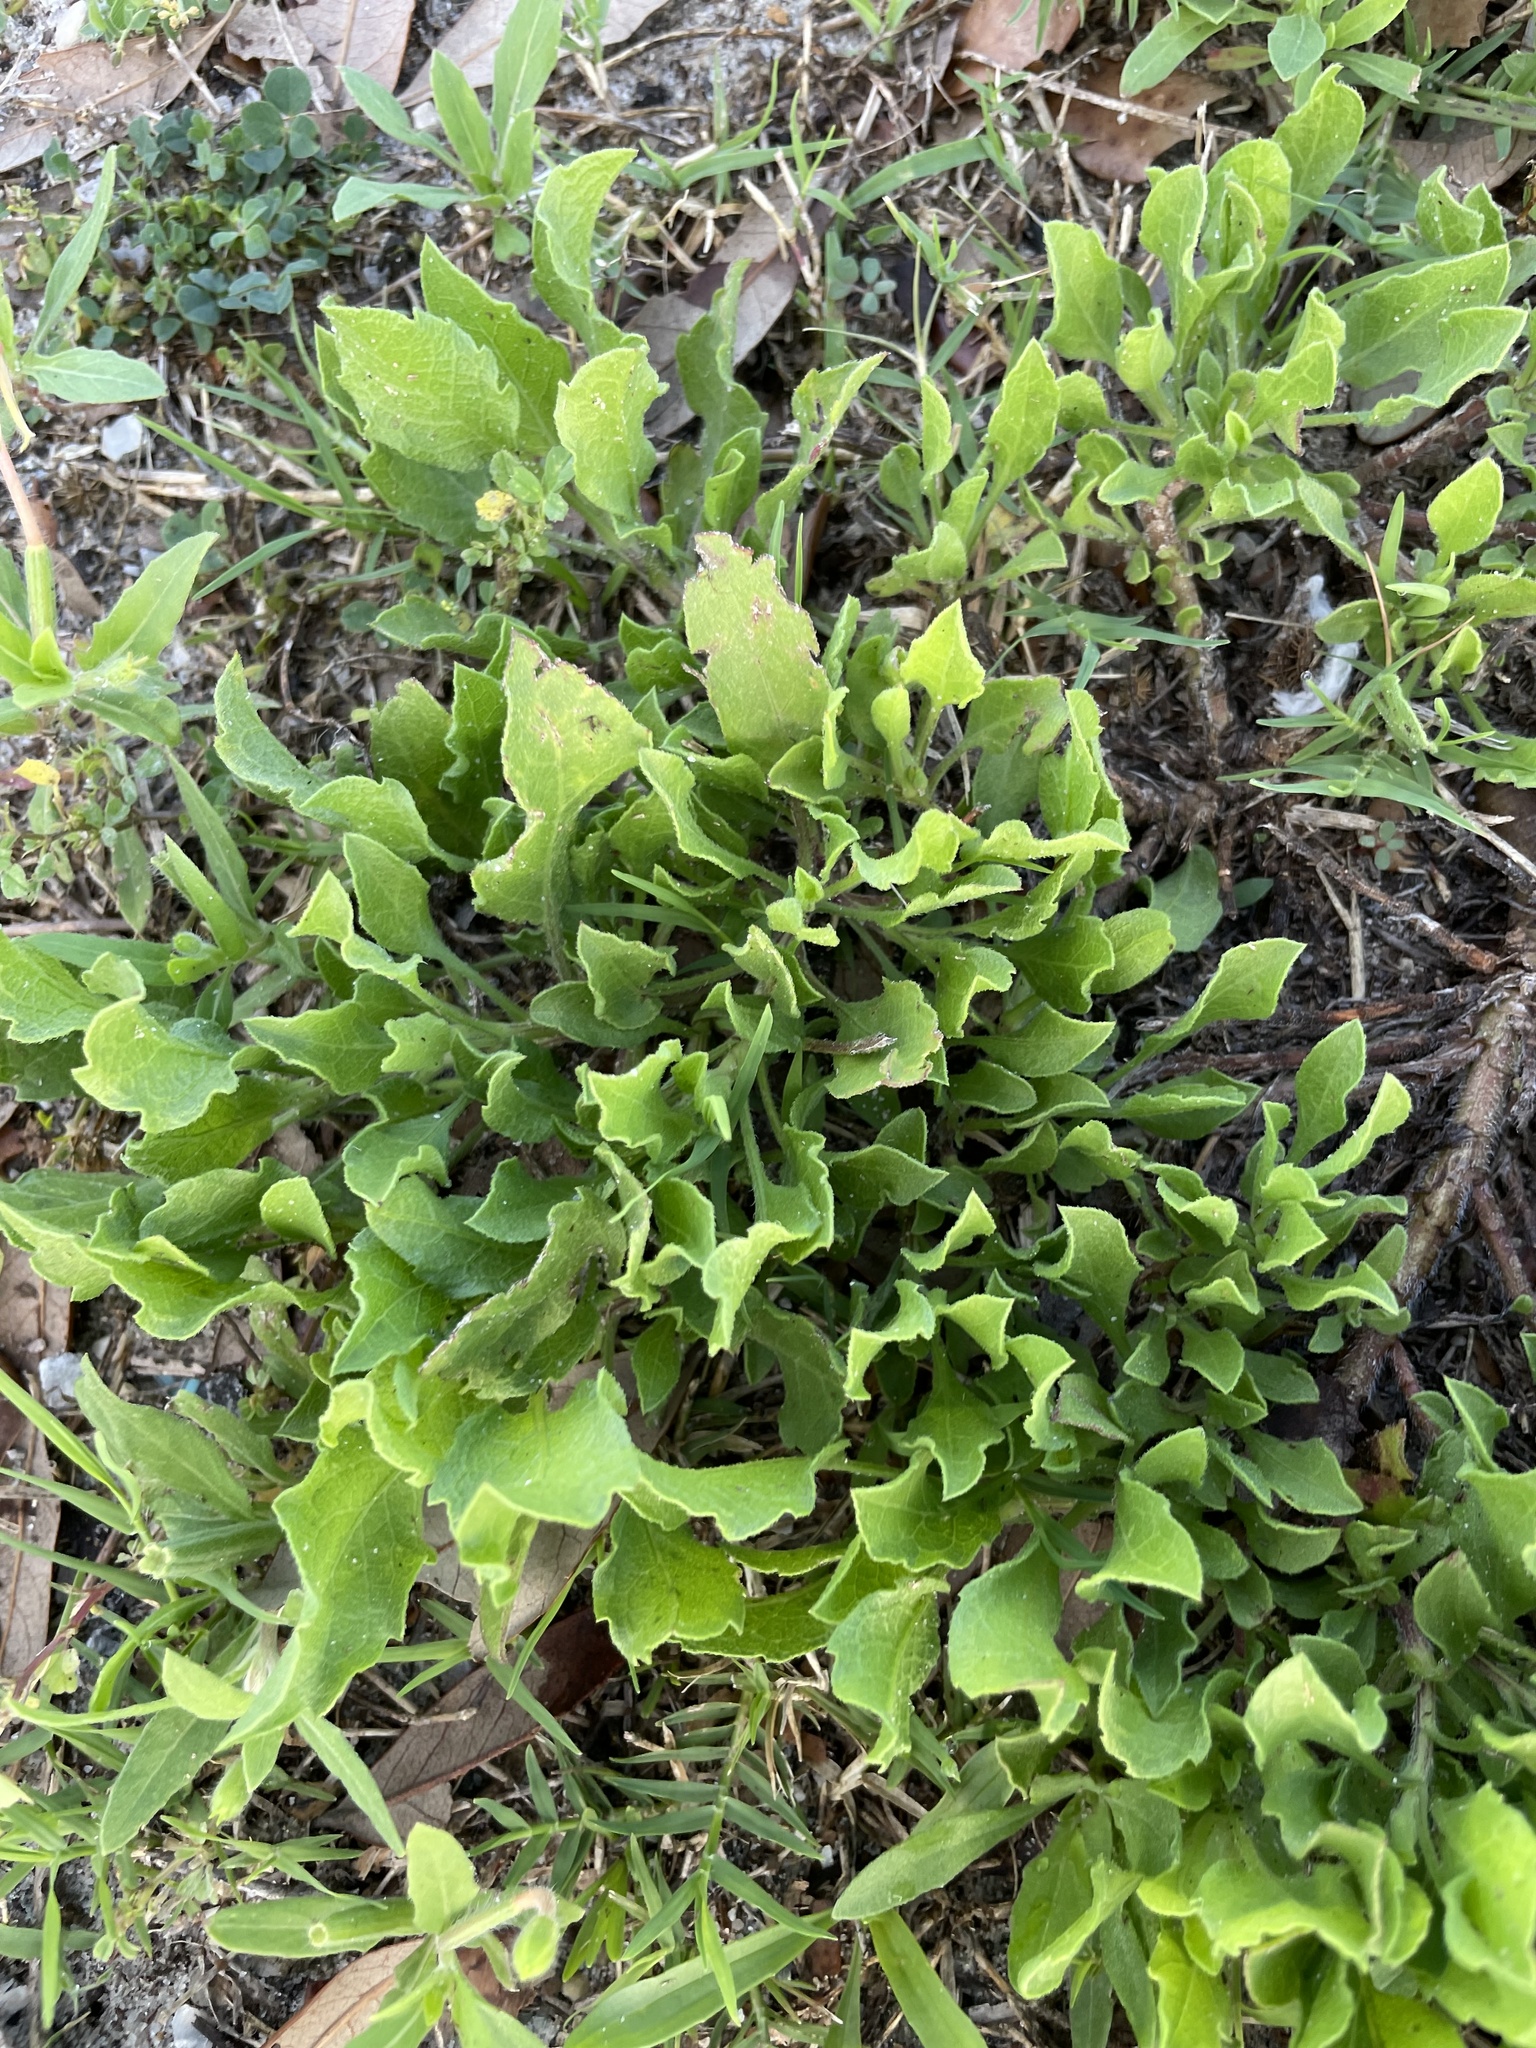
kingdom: Plantae
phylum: Tracheophyta
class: Magnoliopsida
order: Asterales
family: Asteraceae
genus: Heterotheca
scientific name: Heterotheca subaxillaris
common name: Camphorweed
